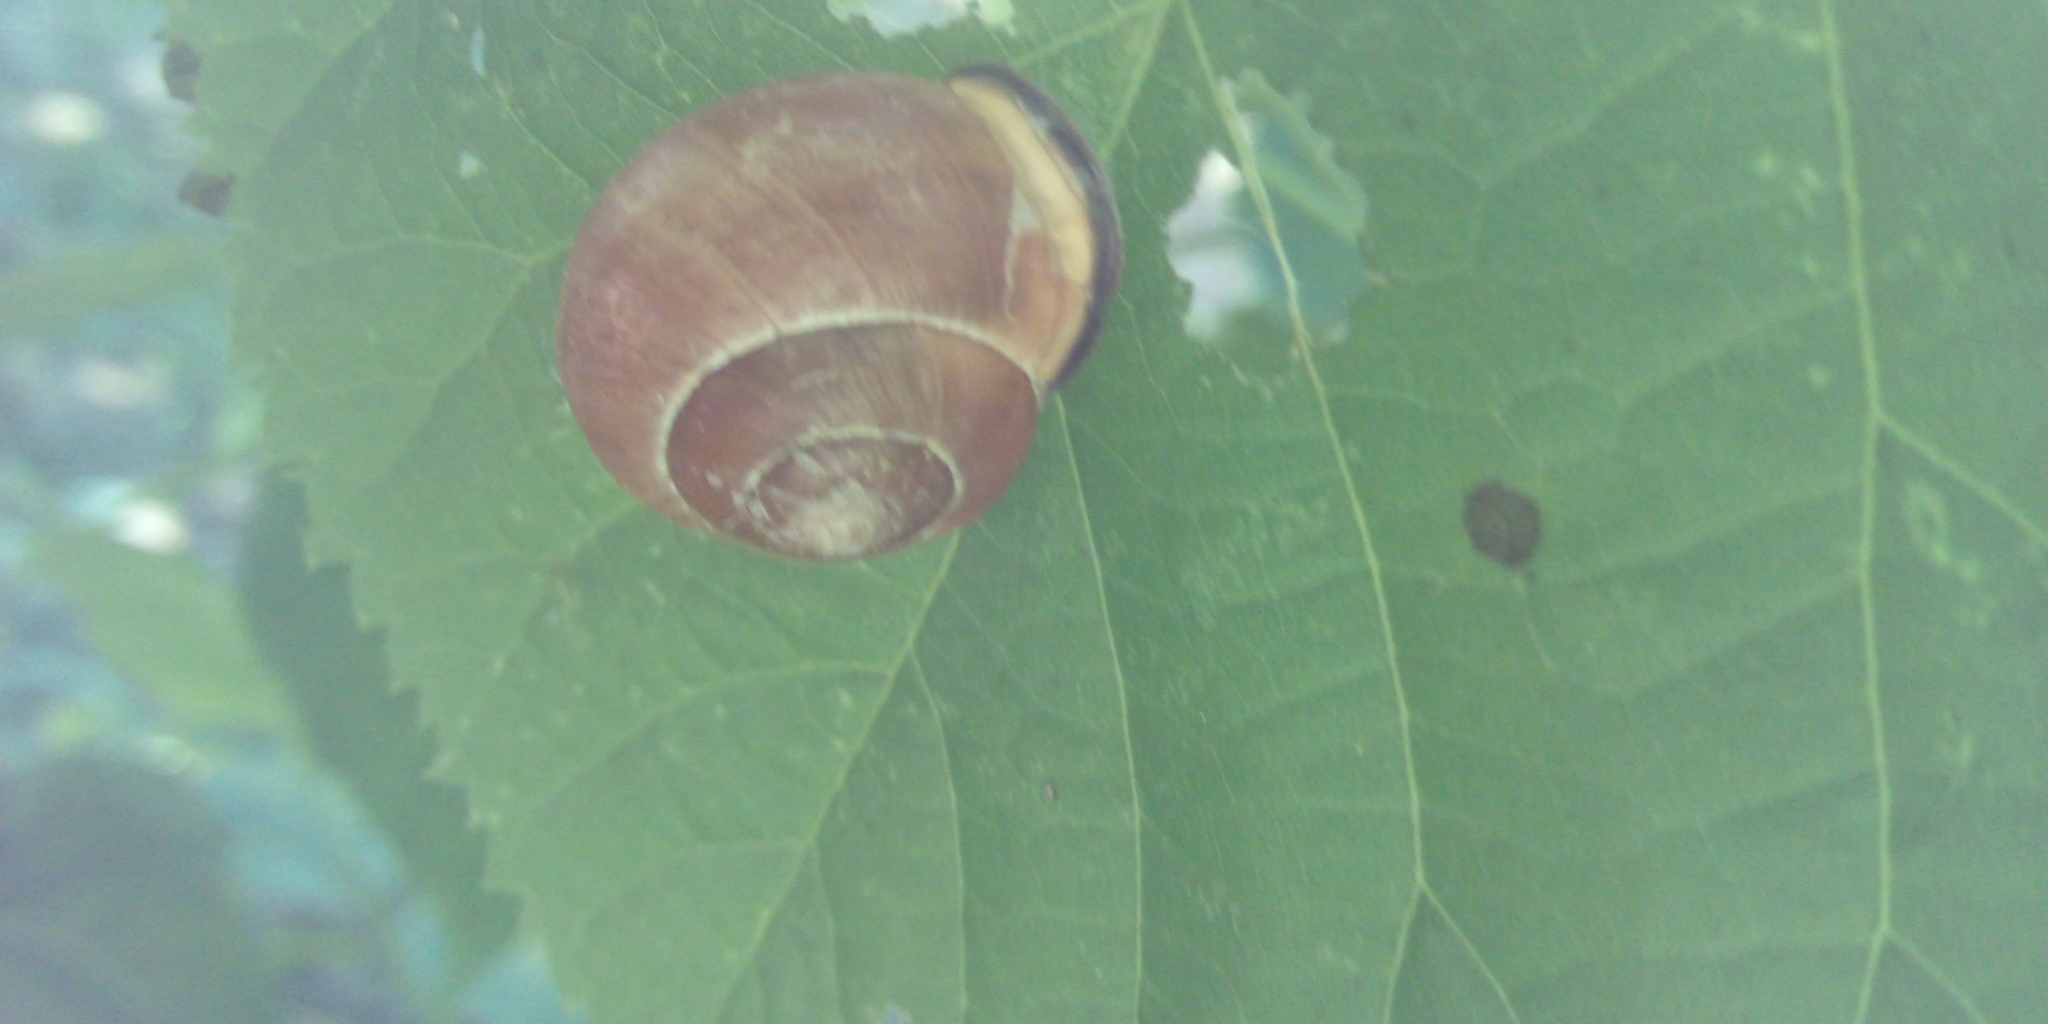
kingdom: Animalia
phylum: Mollusca
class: Gastropoda
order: Stylommatophora
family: Helicidae
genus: Cepaea
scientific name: Cepaea nemoralis
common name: Grovesnail
